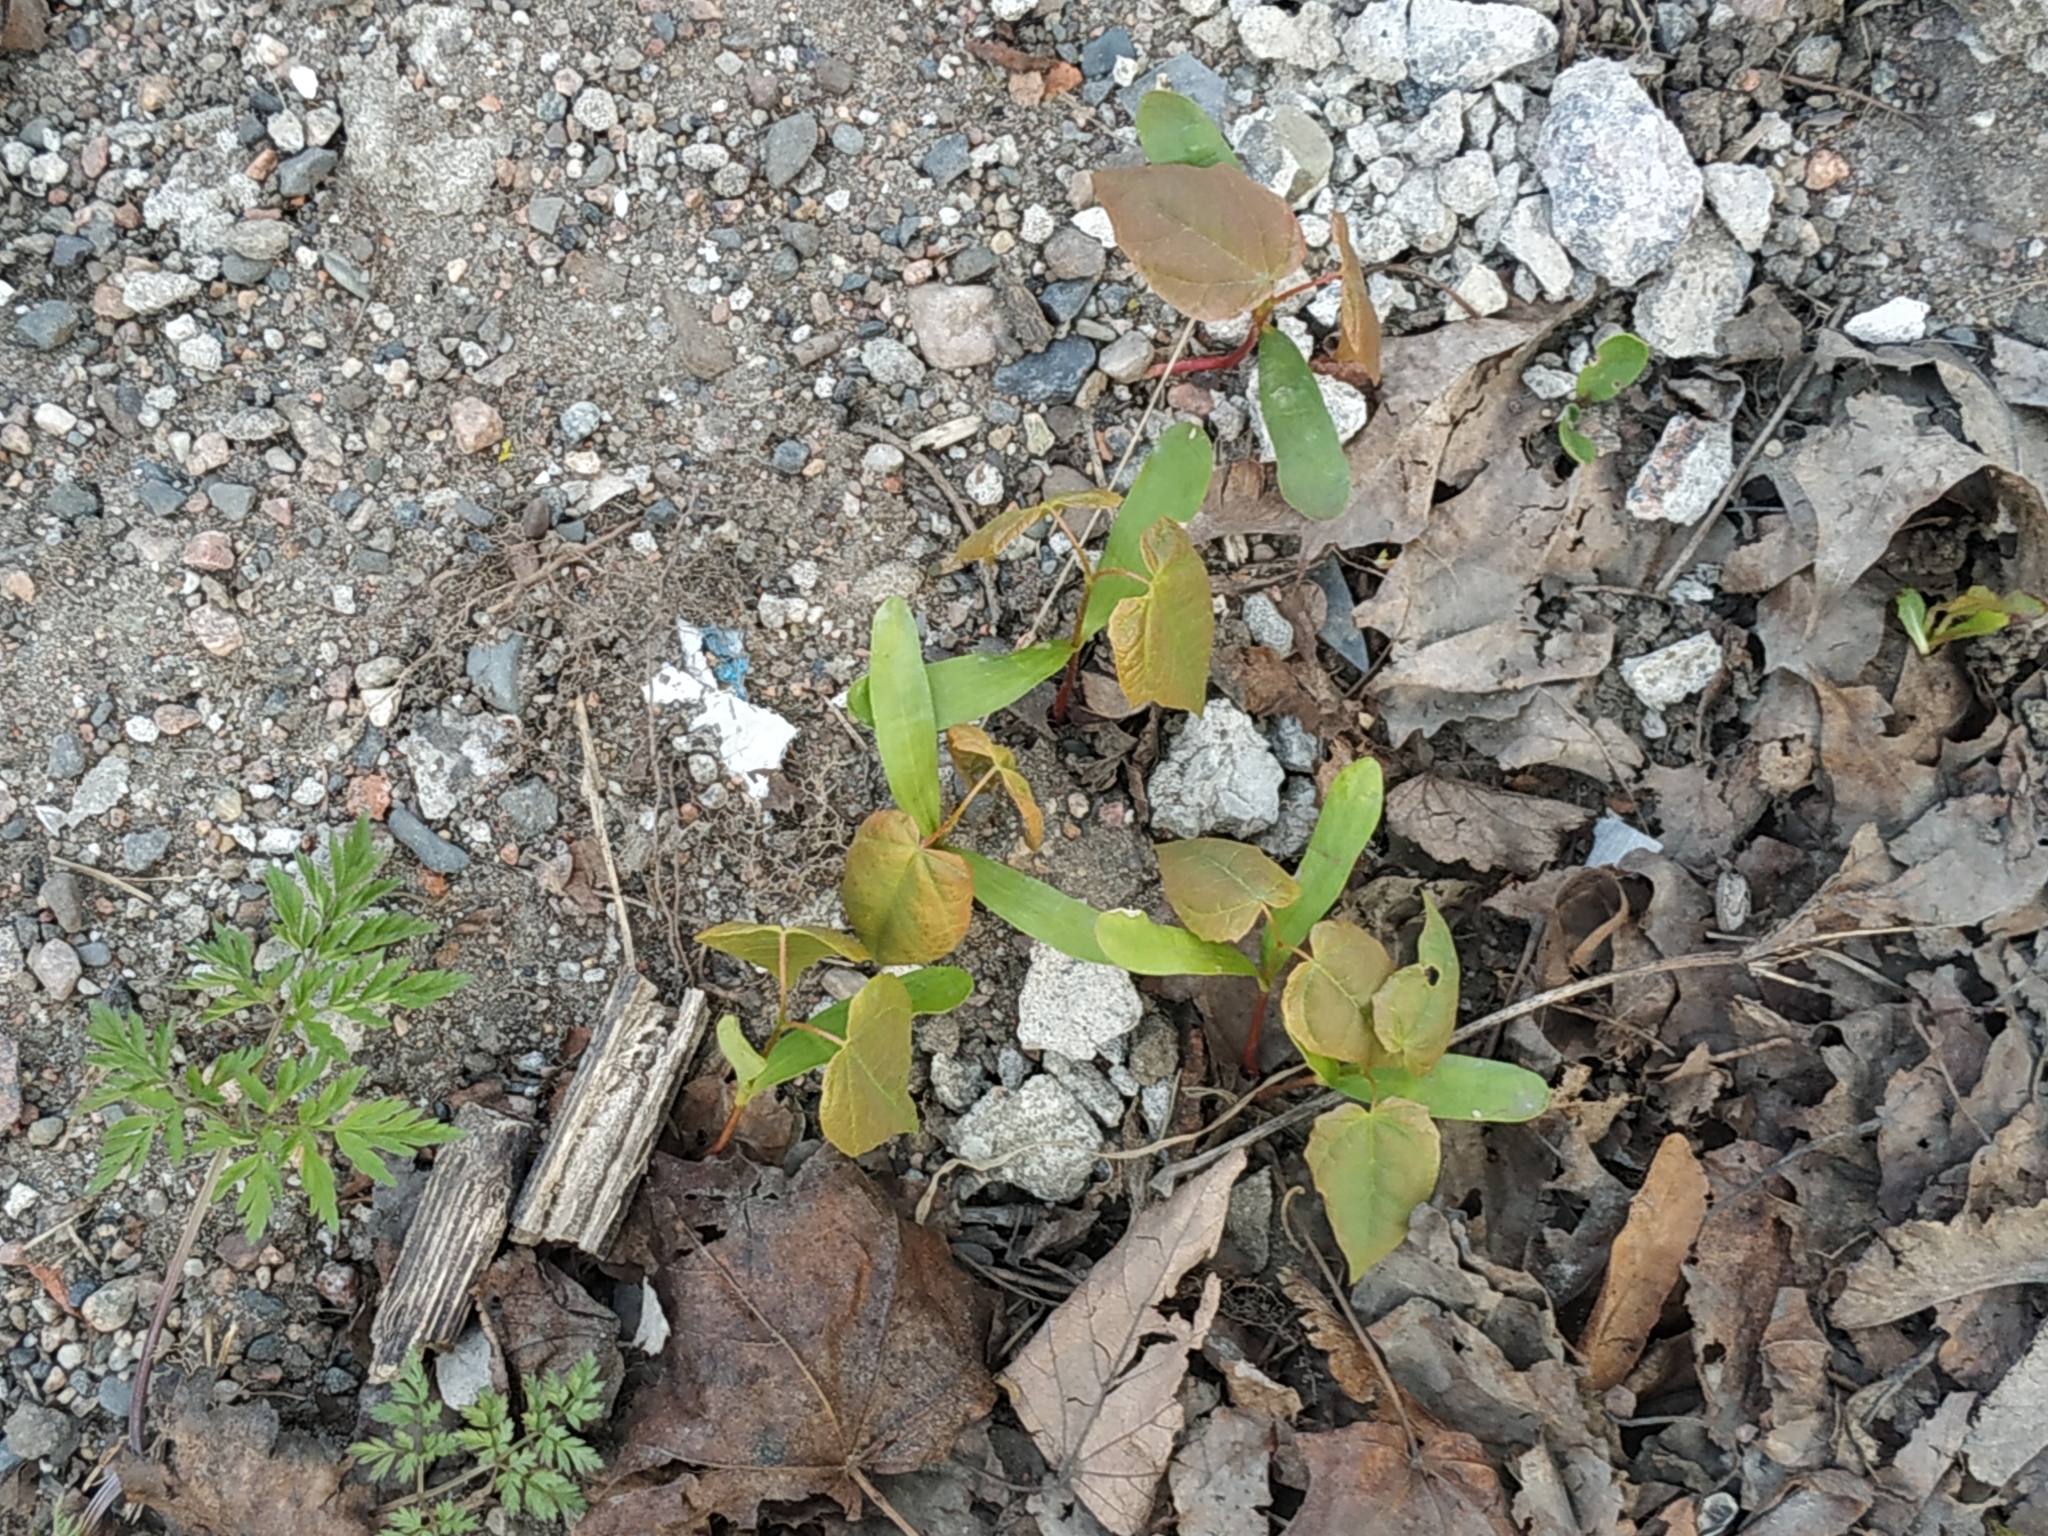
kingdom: Plantae
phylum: Tracheophyta
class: Magnoliopsida
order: Sapindales
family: Sapindaceae
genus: Acer
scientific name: Acer platanoides
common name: Norway maple
